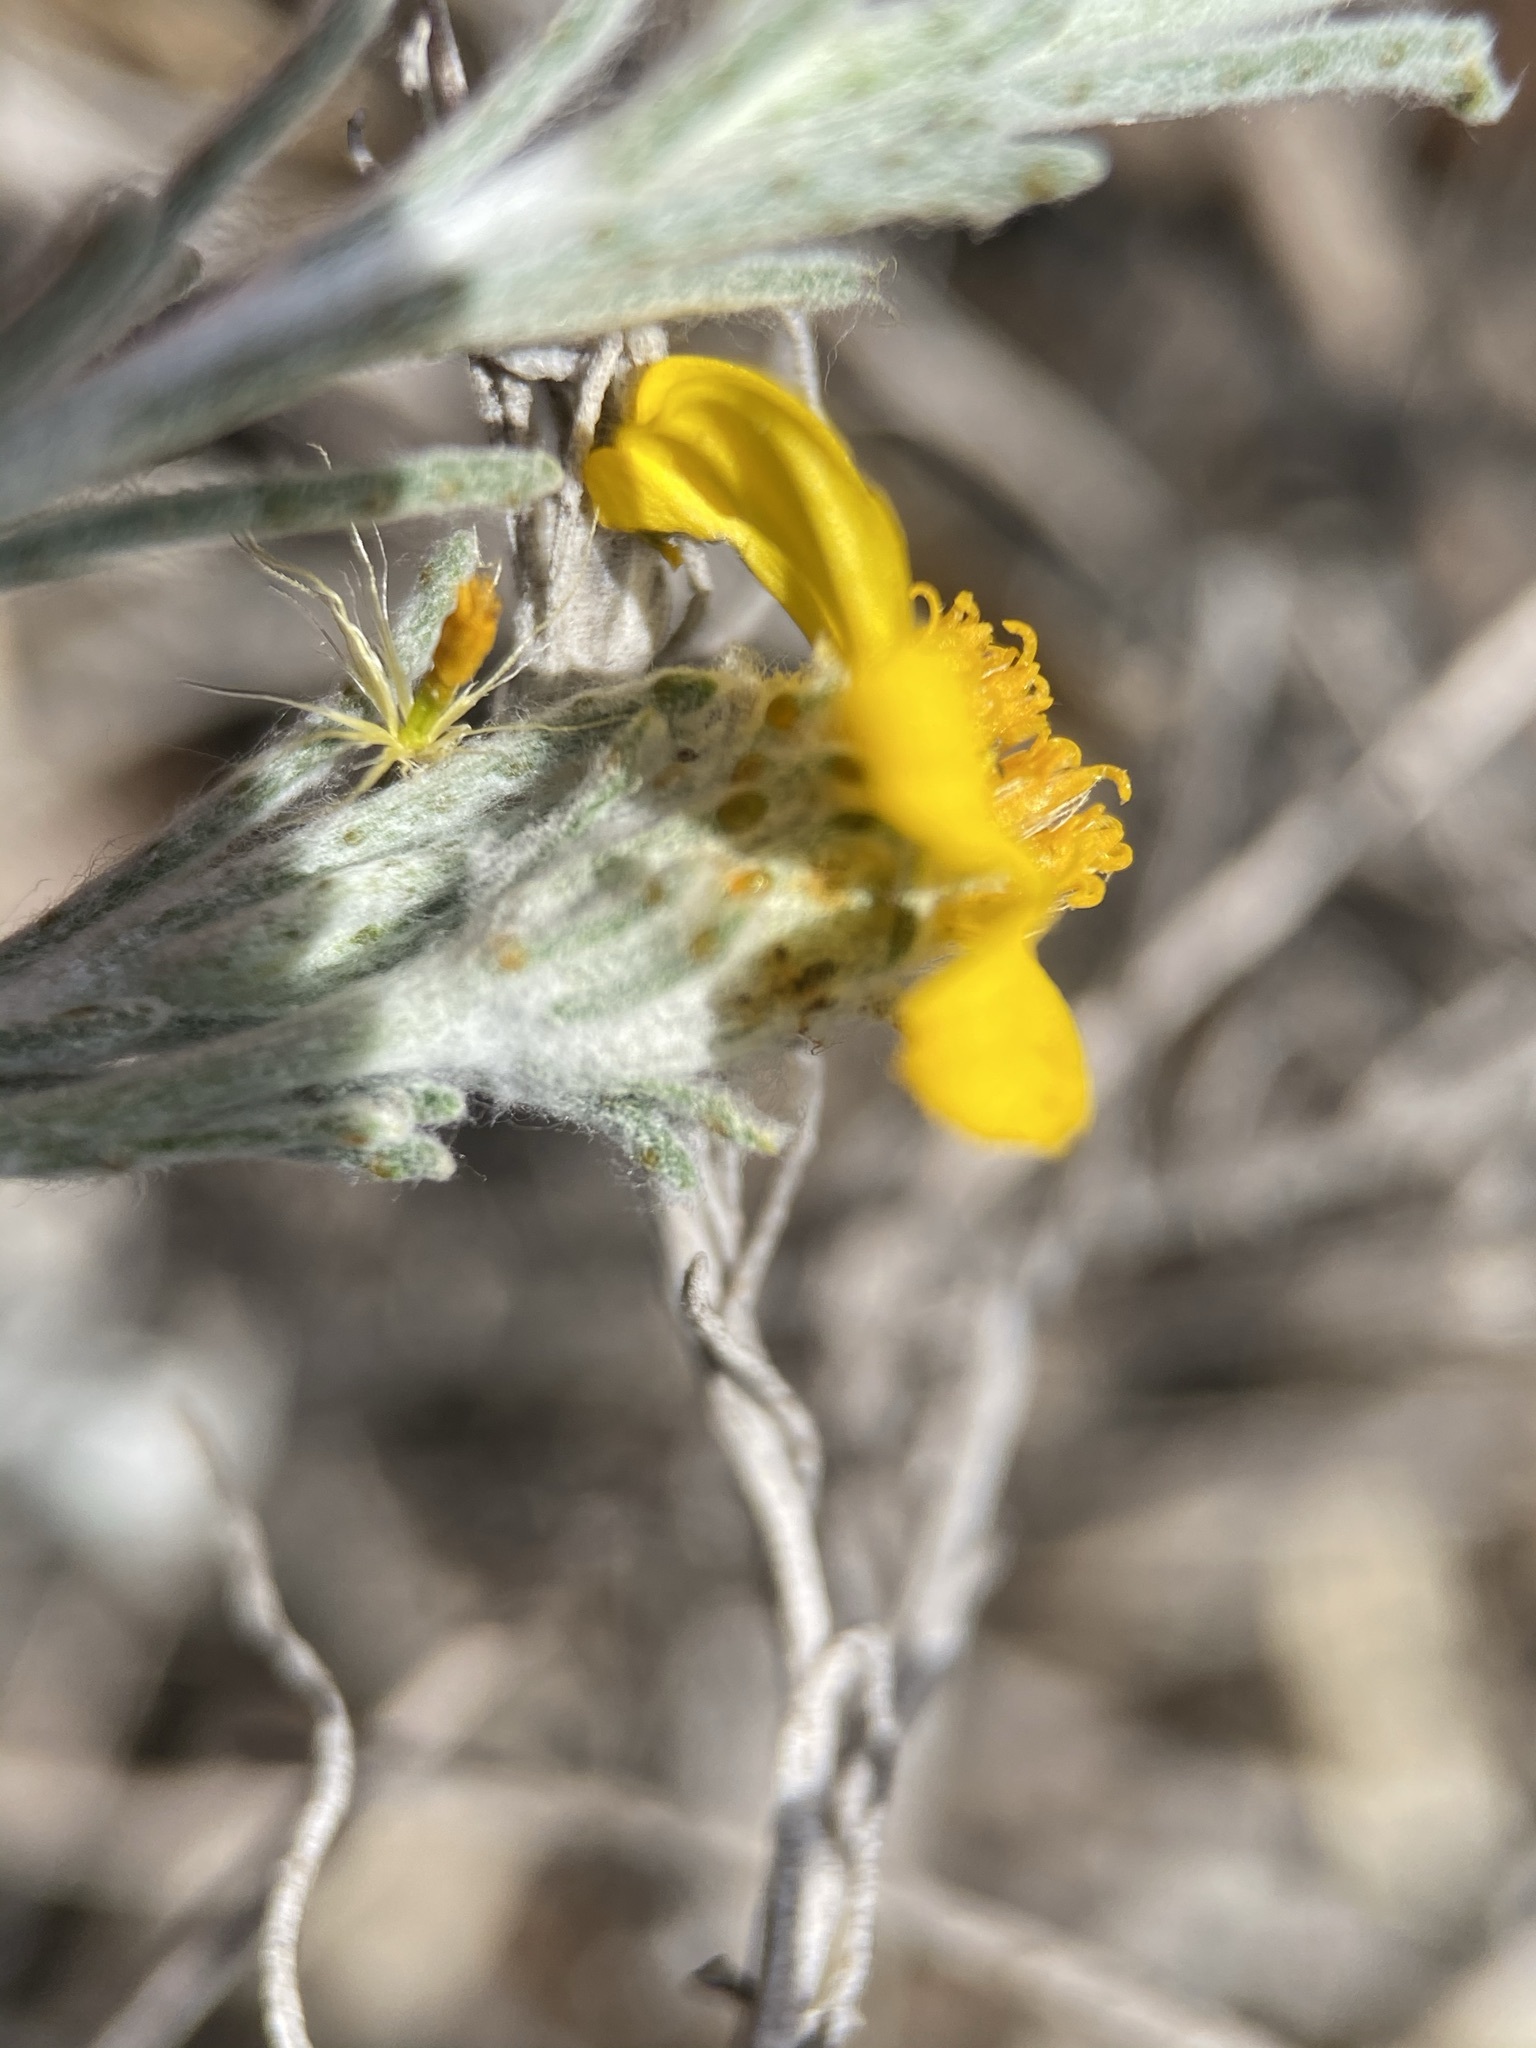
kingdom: Plantae
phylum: Tracheophyta
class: Magnoliopsida
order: Asterales
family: Asteraceae
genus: Thymophylla
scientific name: Thymophylla tephroleuca
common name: Ashy dogweed
